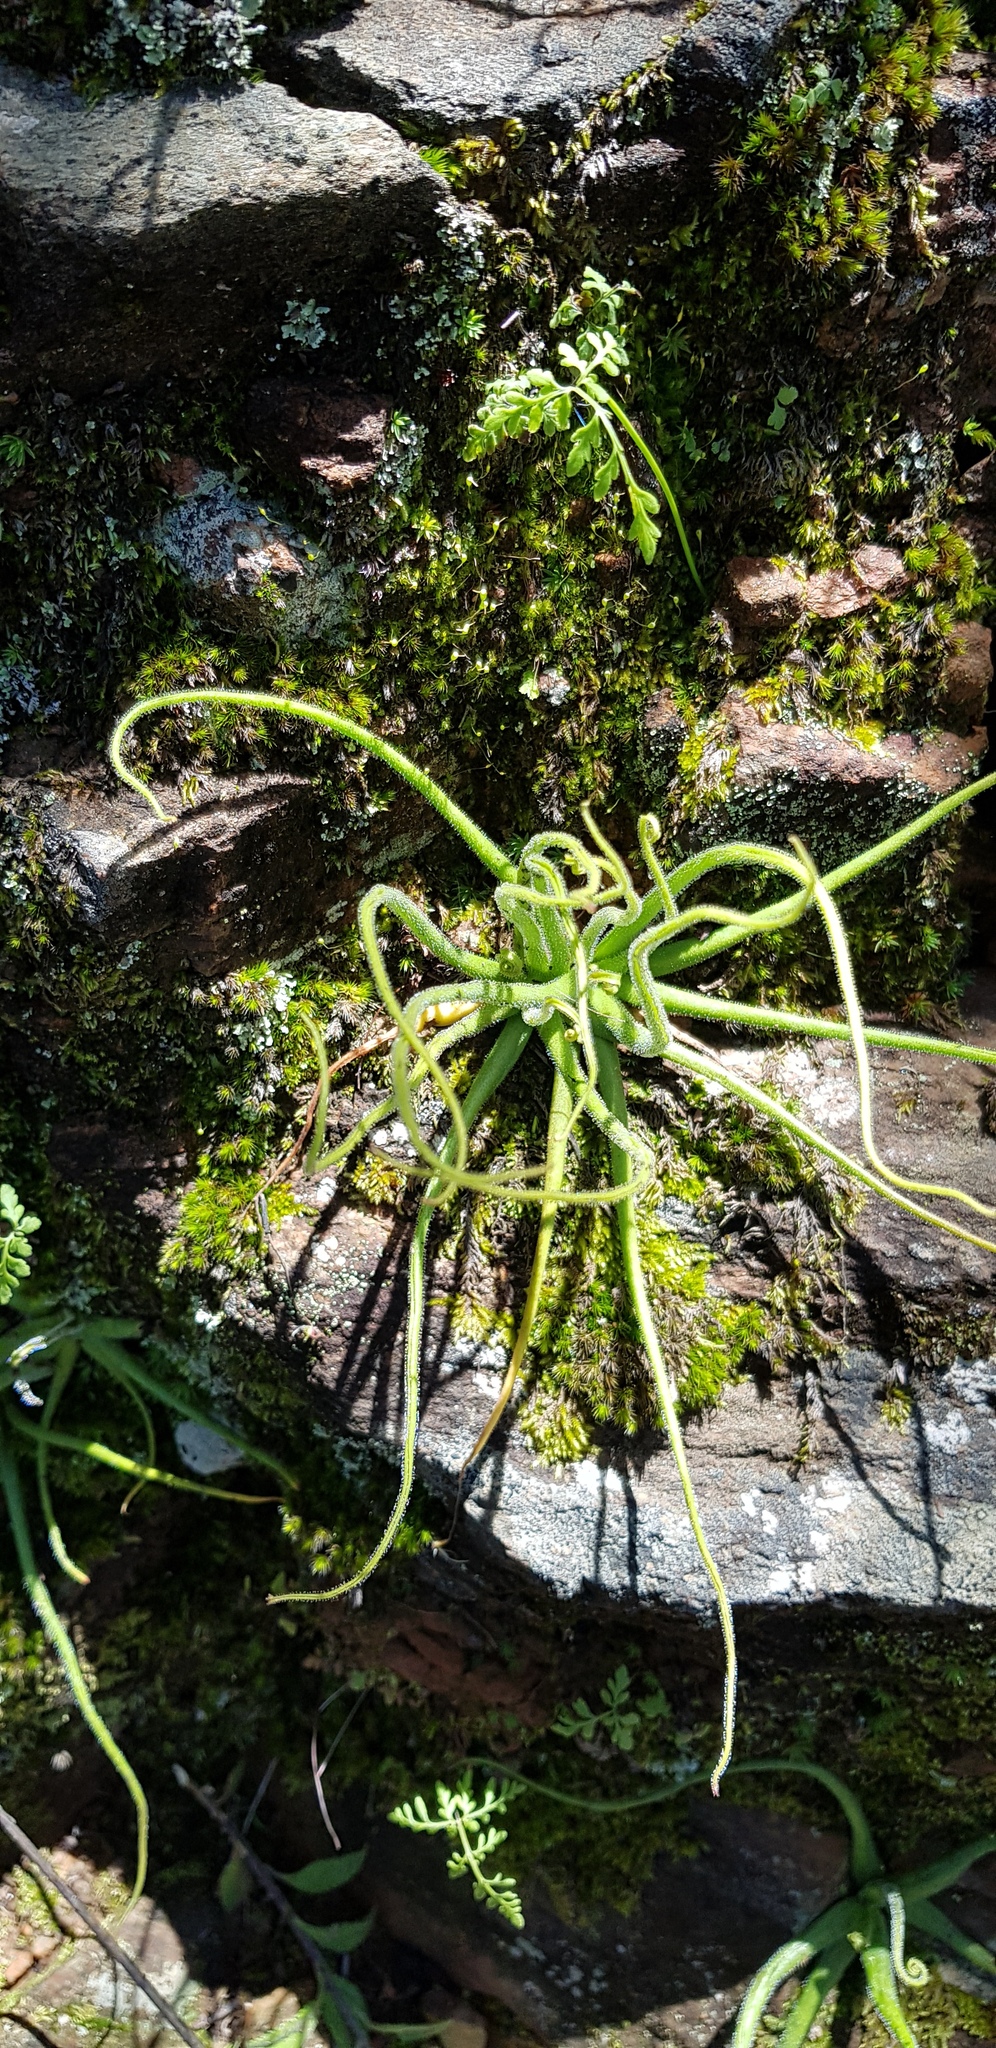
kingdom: Plantae
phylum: Tracheophyta
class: Magnoliopsida
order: Lamiales
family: Lentibulariaceae
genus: Pinguicula
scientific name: Pinguicula heterophylla
